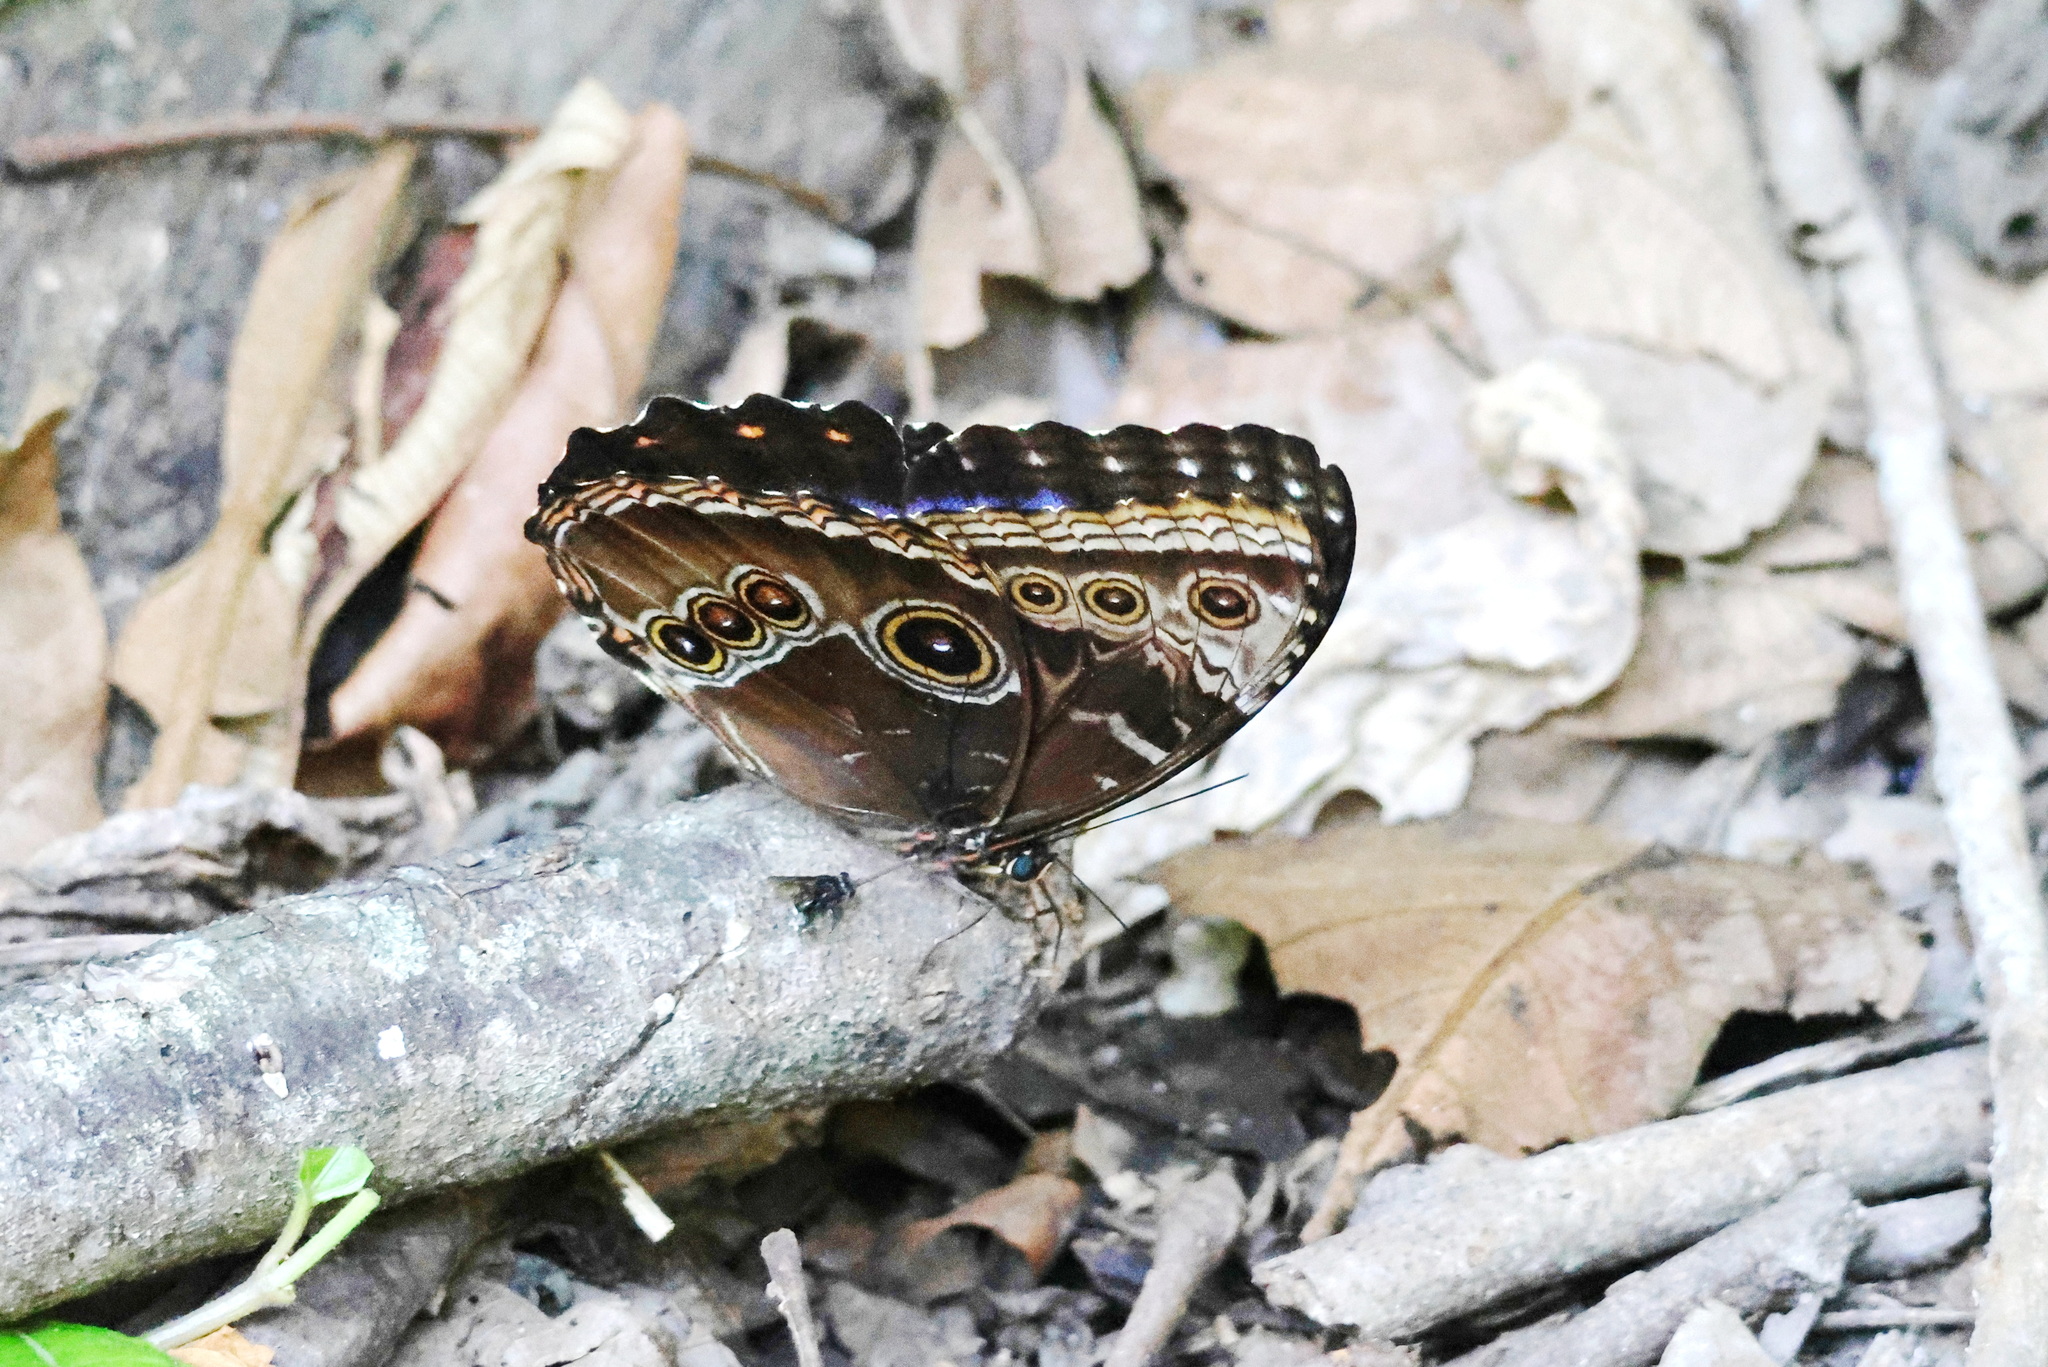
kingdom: Animalia
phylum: Arthropoda
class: Insecta
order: Lepidoptera
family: Nymphalidae
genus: Morpho
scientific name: Morpho helenor
